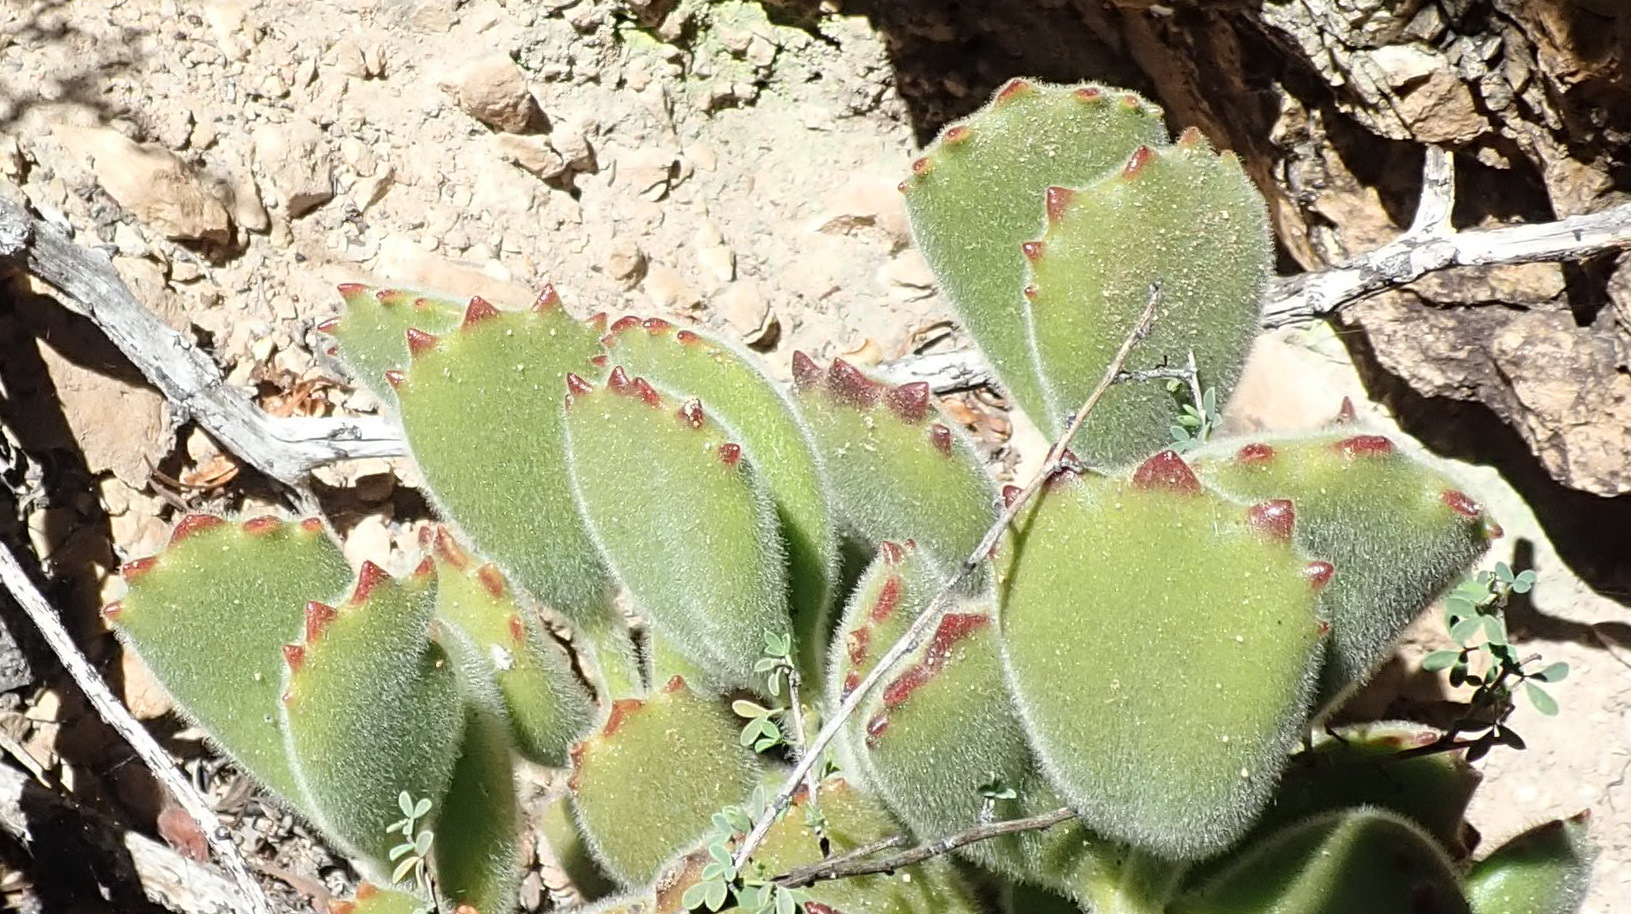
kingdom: Plantae
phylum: Tracheophyta
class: Magnoliopsida
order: Saxifragales
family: Crassulaceae
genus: Cotyledon
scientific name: Cotyledon tomentosa
